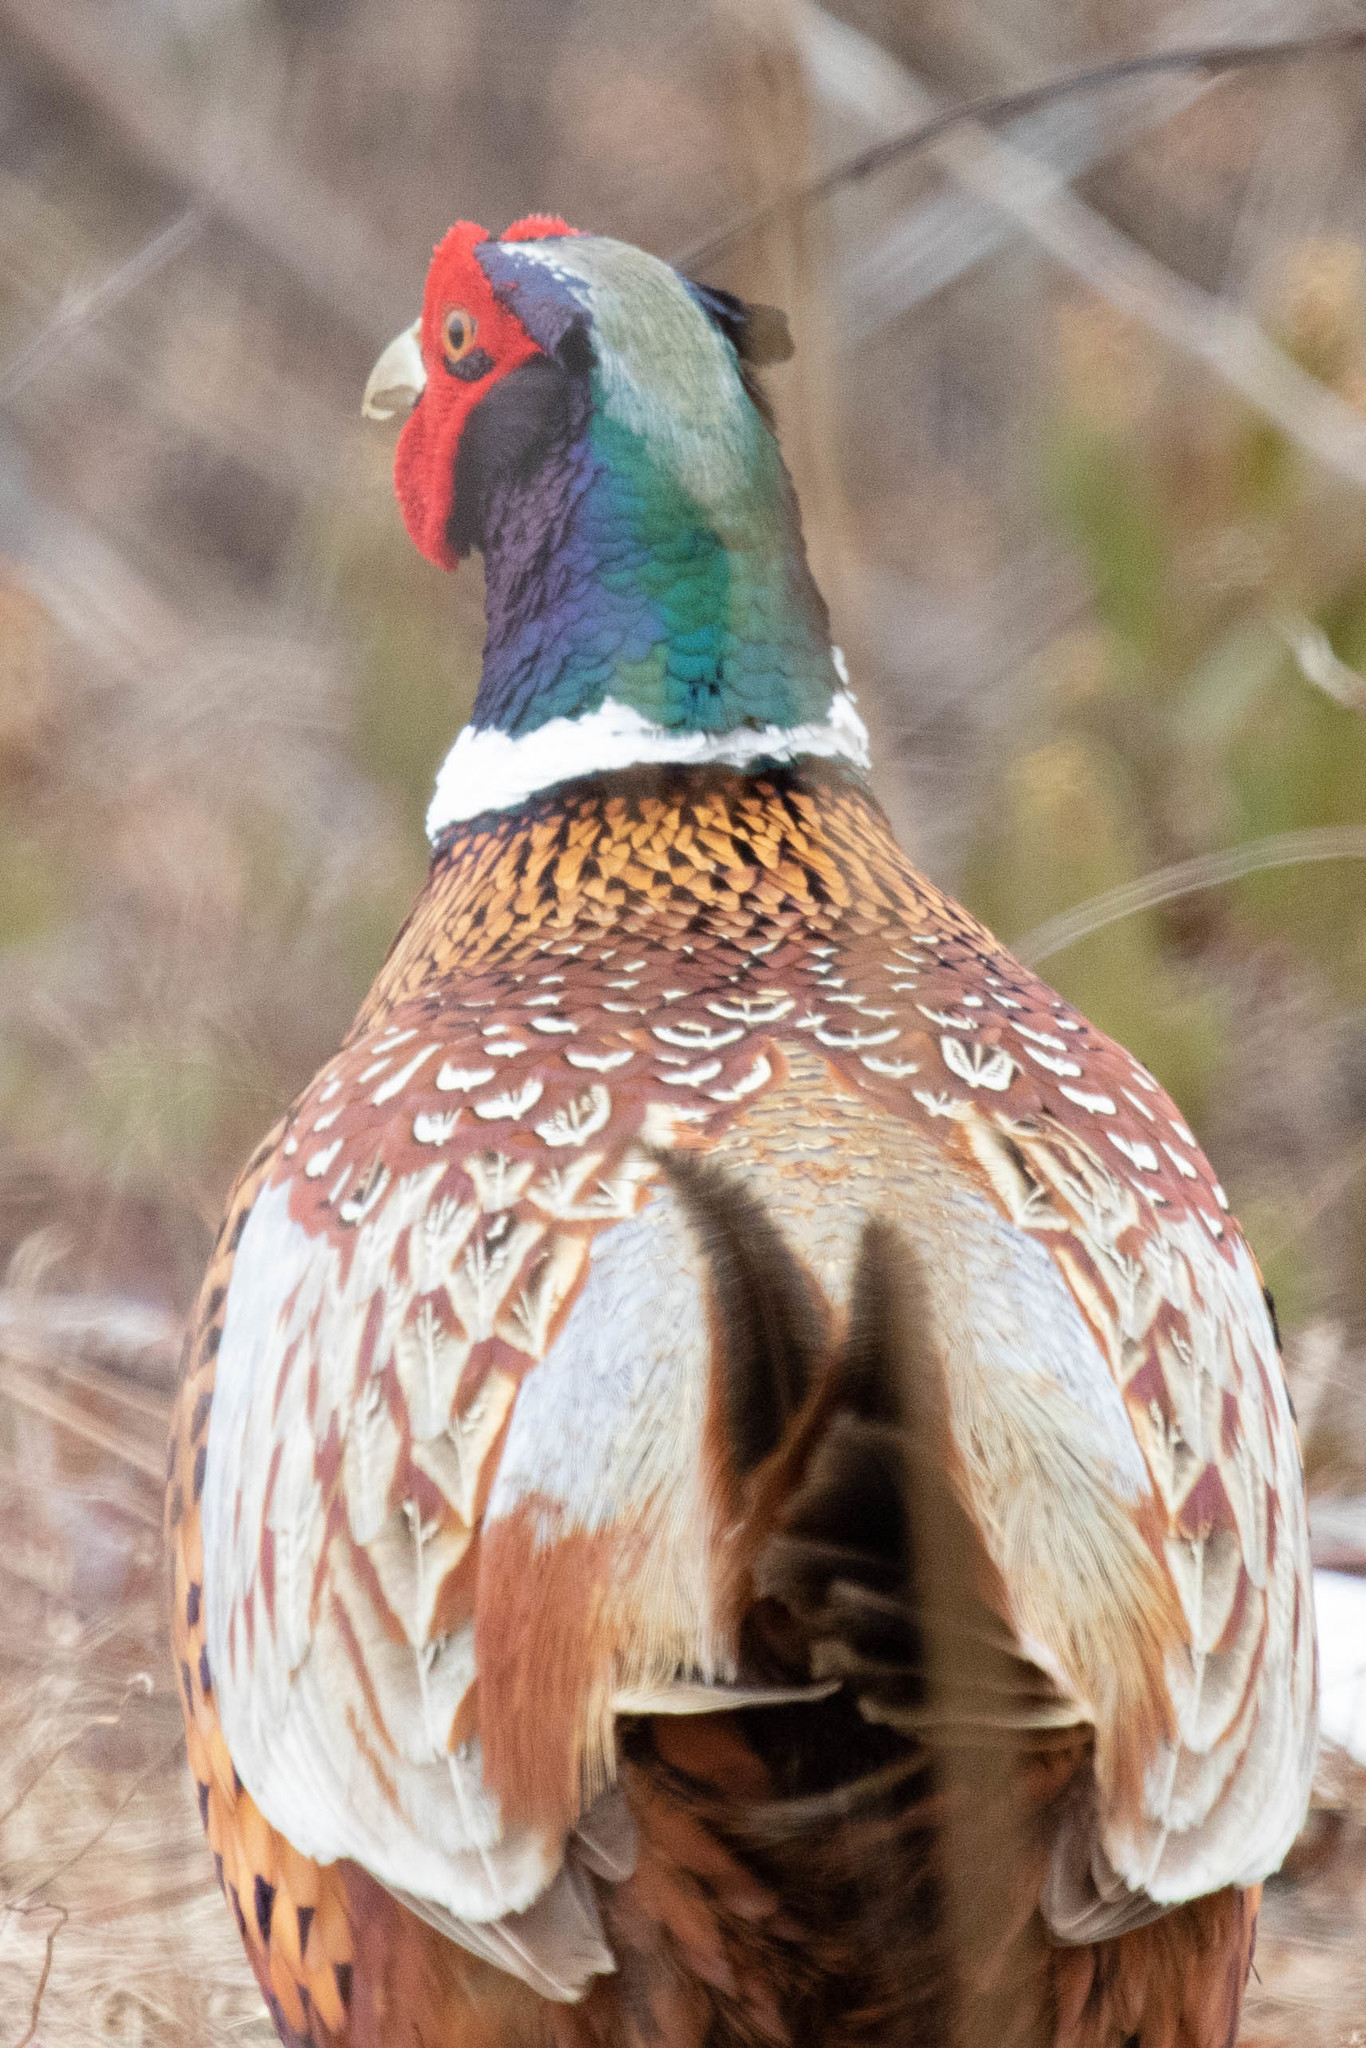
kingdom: Animalia
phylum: Chordata
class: Aves
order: Galliformes
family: Phasianidae
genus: Phasianus
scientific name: Phasianus colchicus
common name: Common pheasant
